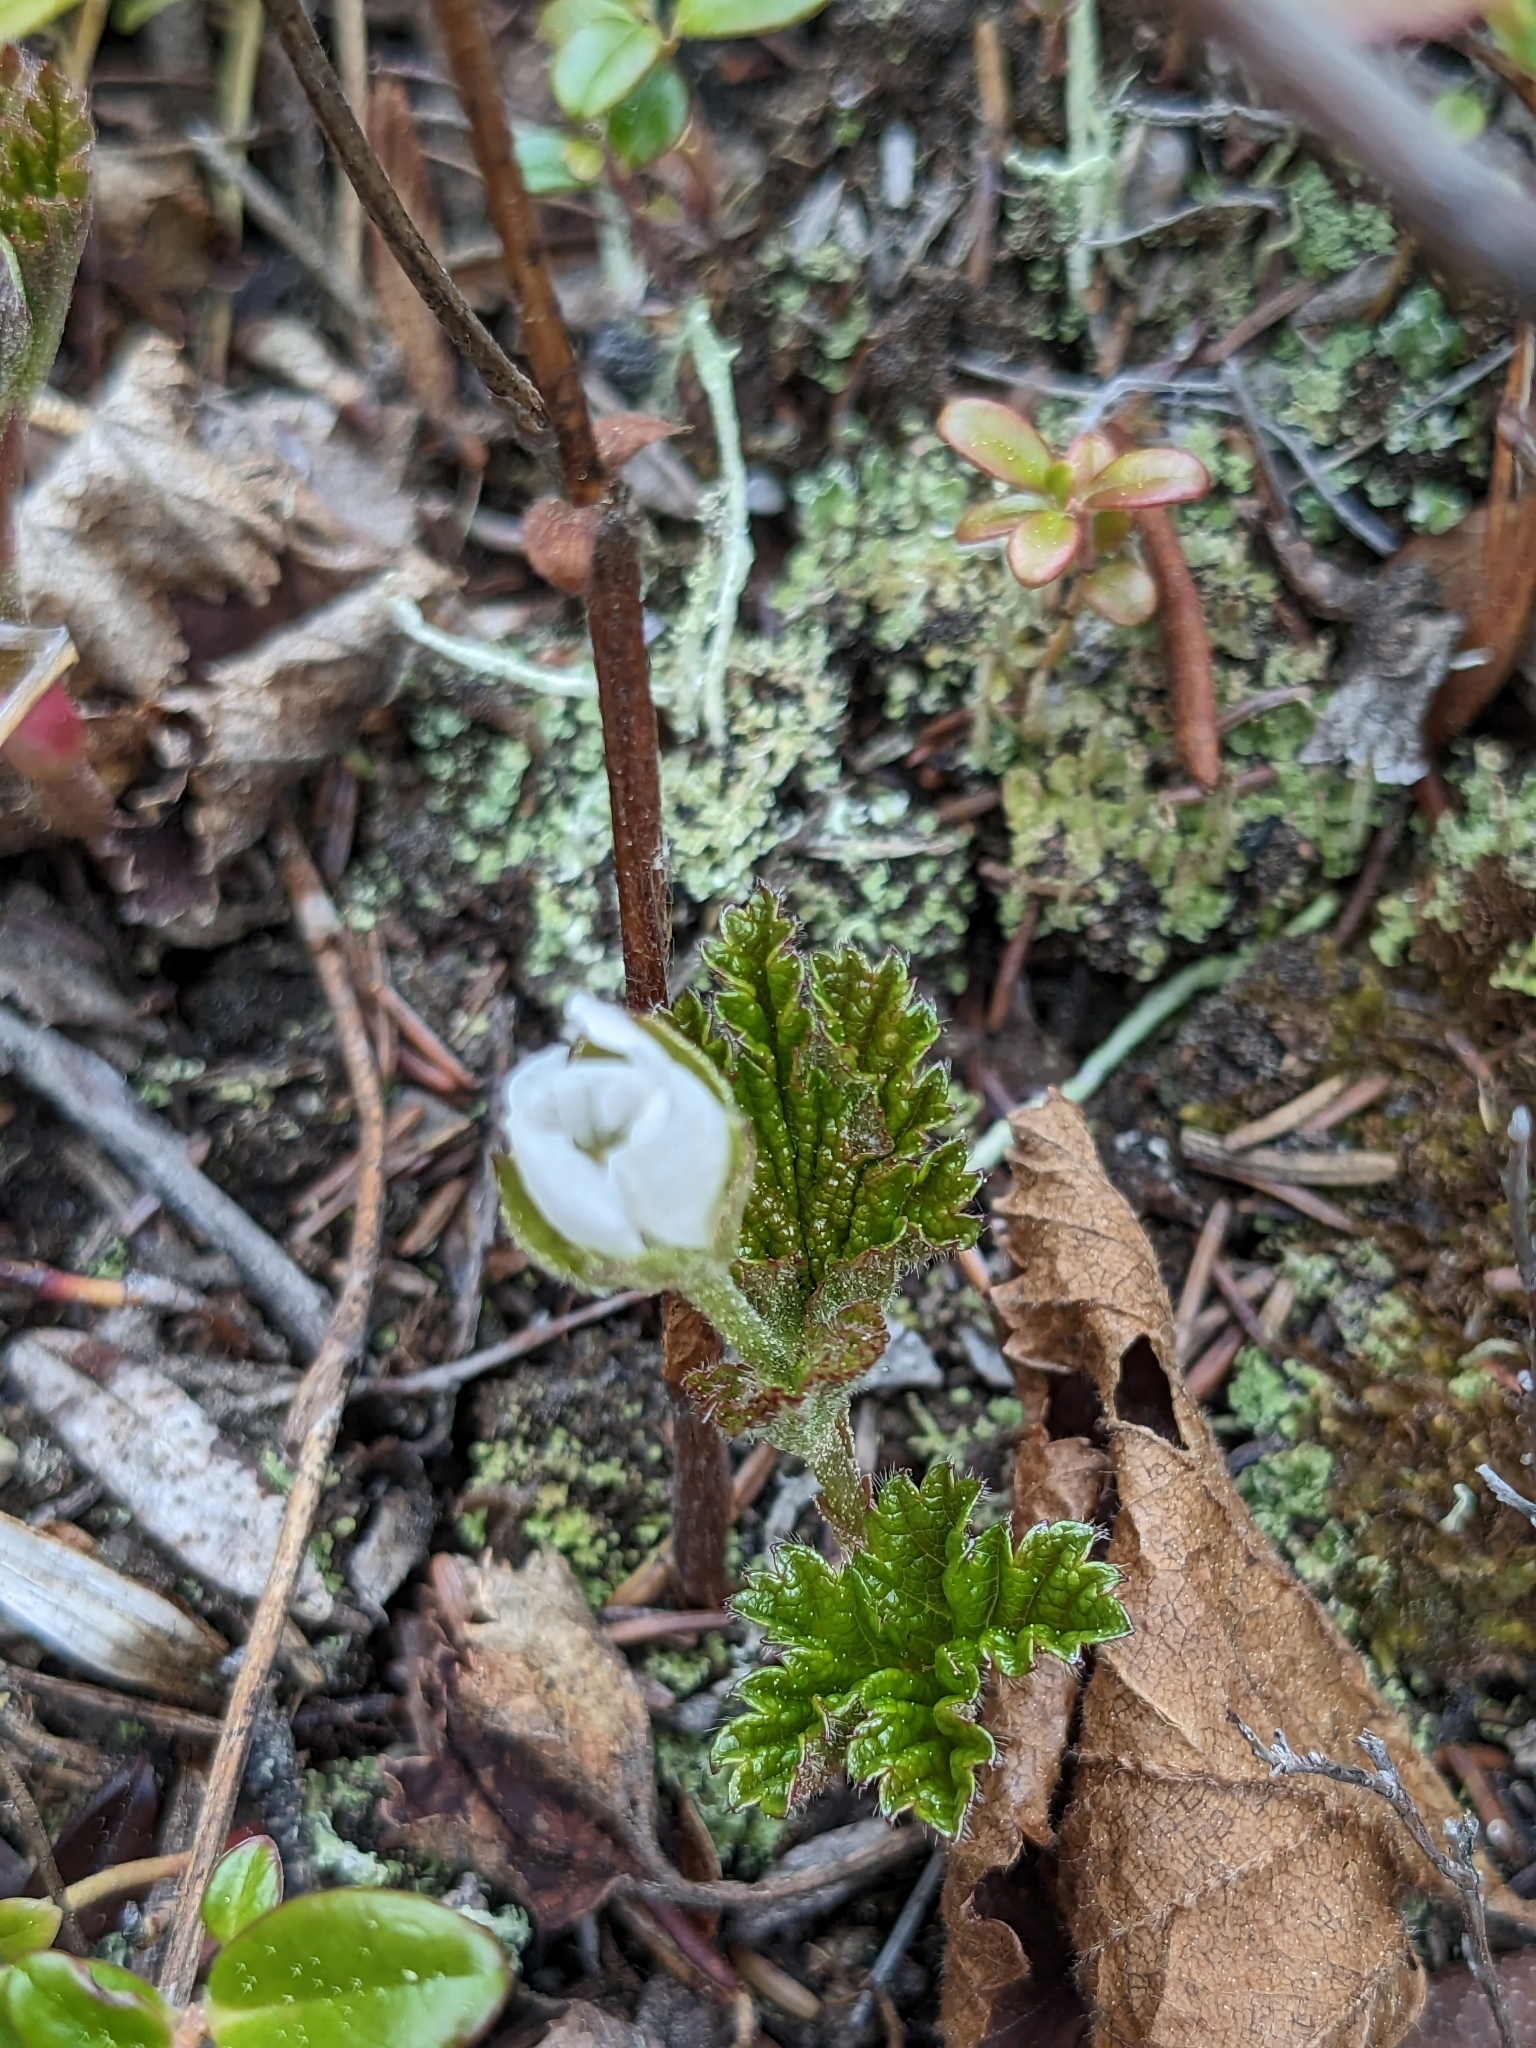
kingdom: Plantae
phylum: Tracheophyta
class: Magnoliopsida
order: Rosales
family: Rosaceae
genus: Rubus
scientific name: Rubus chamaemorus
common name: Cloudberry
